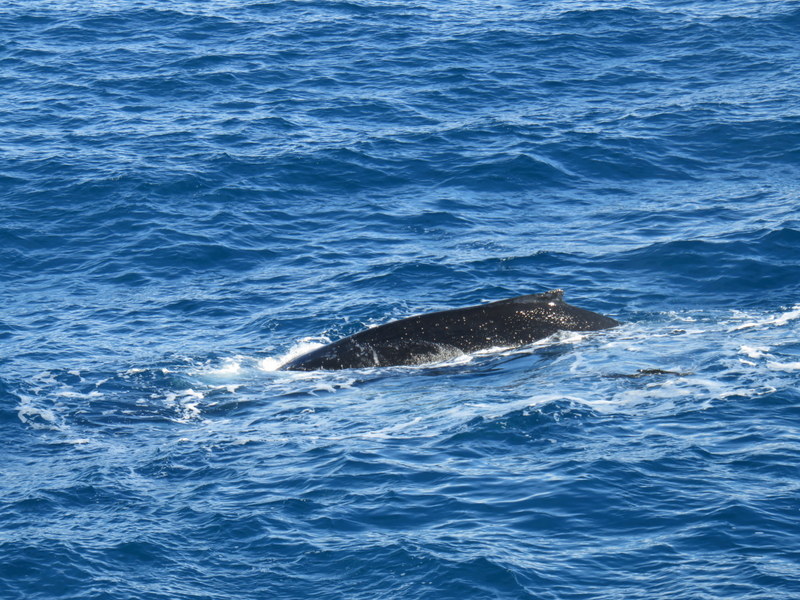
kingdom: Animalia
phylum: Chordata
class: Mammalia
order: Cetacea
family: Balaenopteridae
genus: Megaptera
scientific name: Megaptera novaeangliae
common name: Humpback whale
